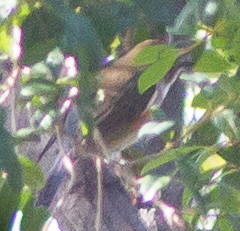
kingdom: Animalia
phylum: Chordata
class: Aves
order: Passeriformes
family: Muscicapidae
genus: Tarsiger
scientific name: Tarsiger cyanurus
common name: Red-flanked bluetail
